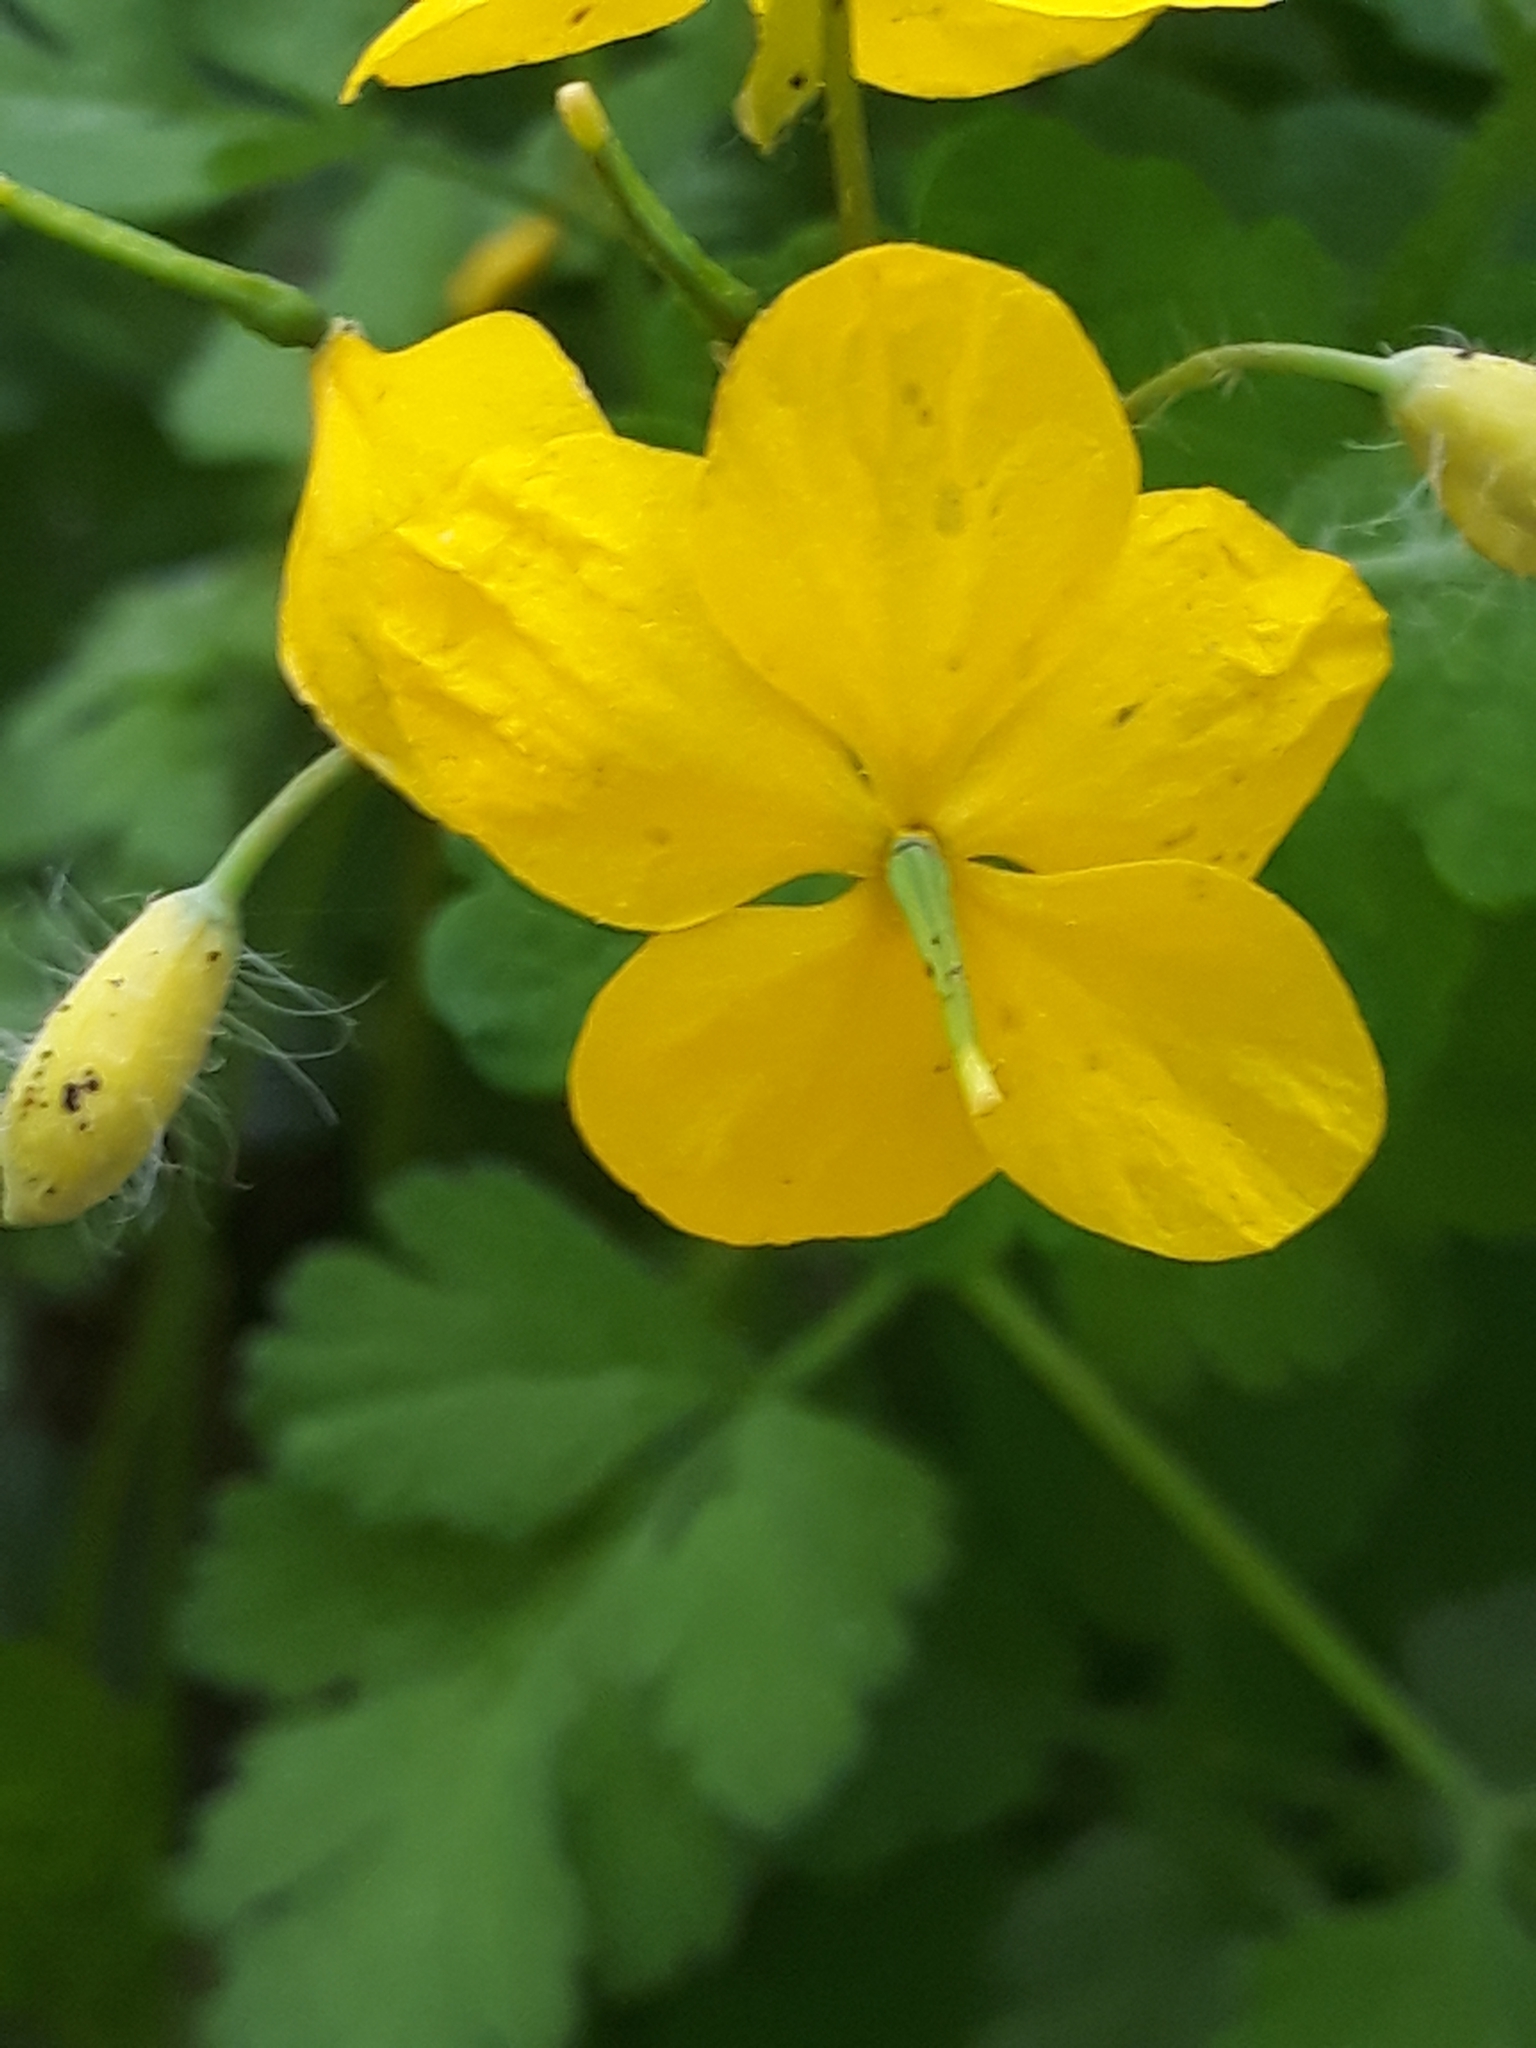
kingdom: Plantae
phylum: Tracheophyta
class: Magnoliopsida
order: Ranunculales
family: Papaveraceae
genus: Chelidonium
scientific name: Chelidonium majus
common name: Greater celandine
